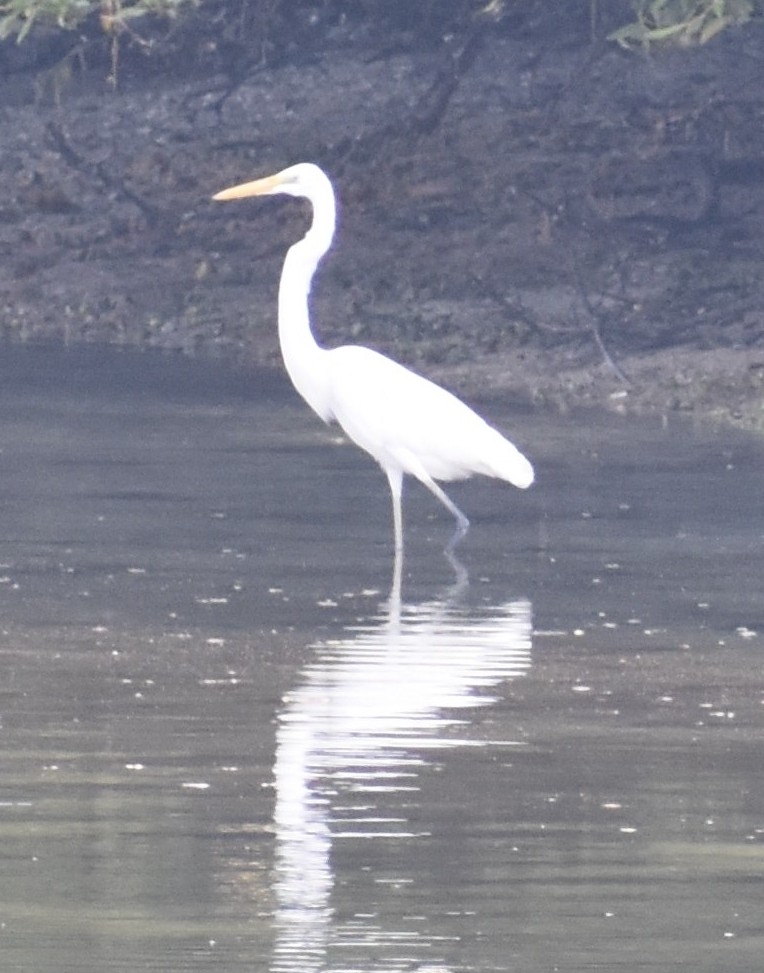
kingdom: Animalia
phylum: Chordata
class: Aves
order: Pelecaniformes
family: Ardeidae
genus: Ardea
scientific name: Ardea alba
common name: Great egret
